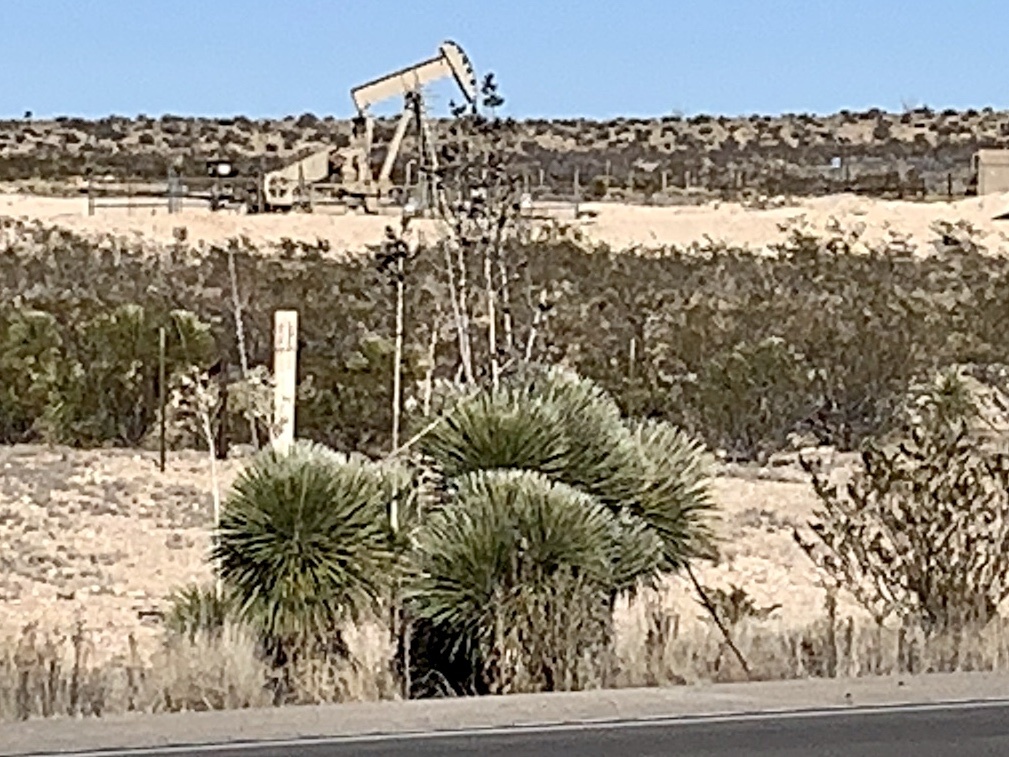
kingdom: Plantae
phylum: Tracheophyta
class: Liliopsida
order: Asparagales
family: Asparagaceae
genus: Yucca
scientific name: Yucca elata
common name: Palmella
